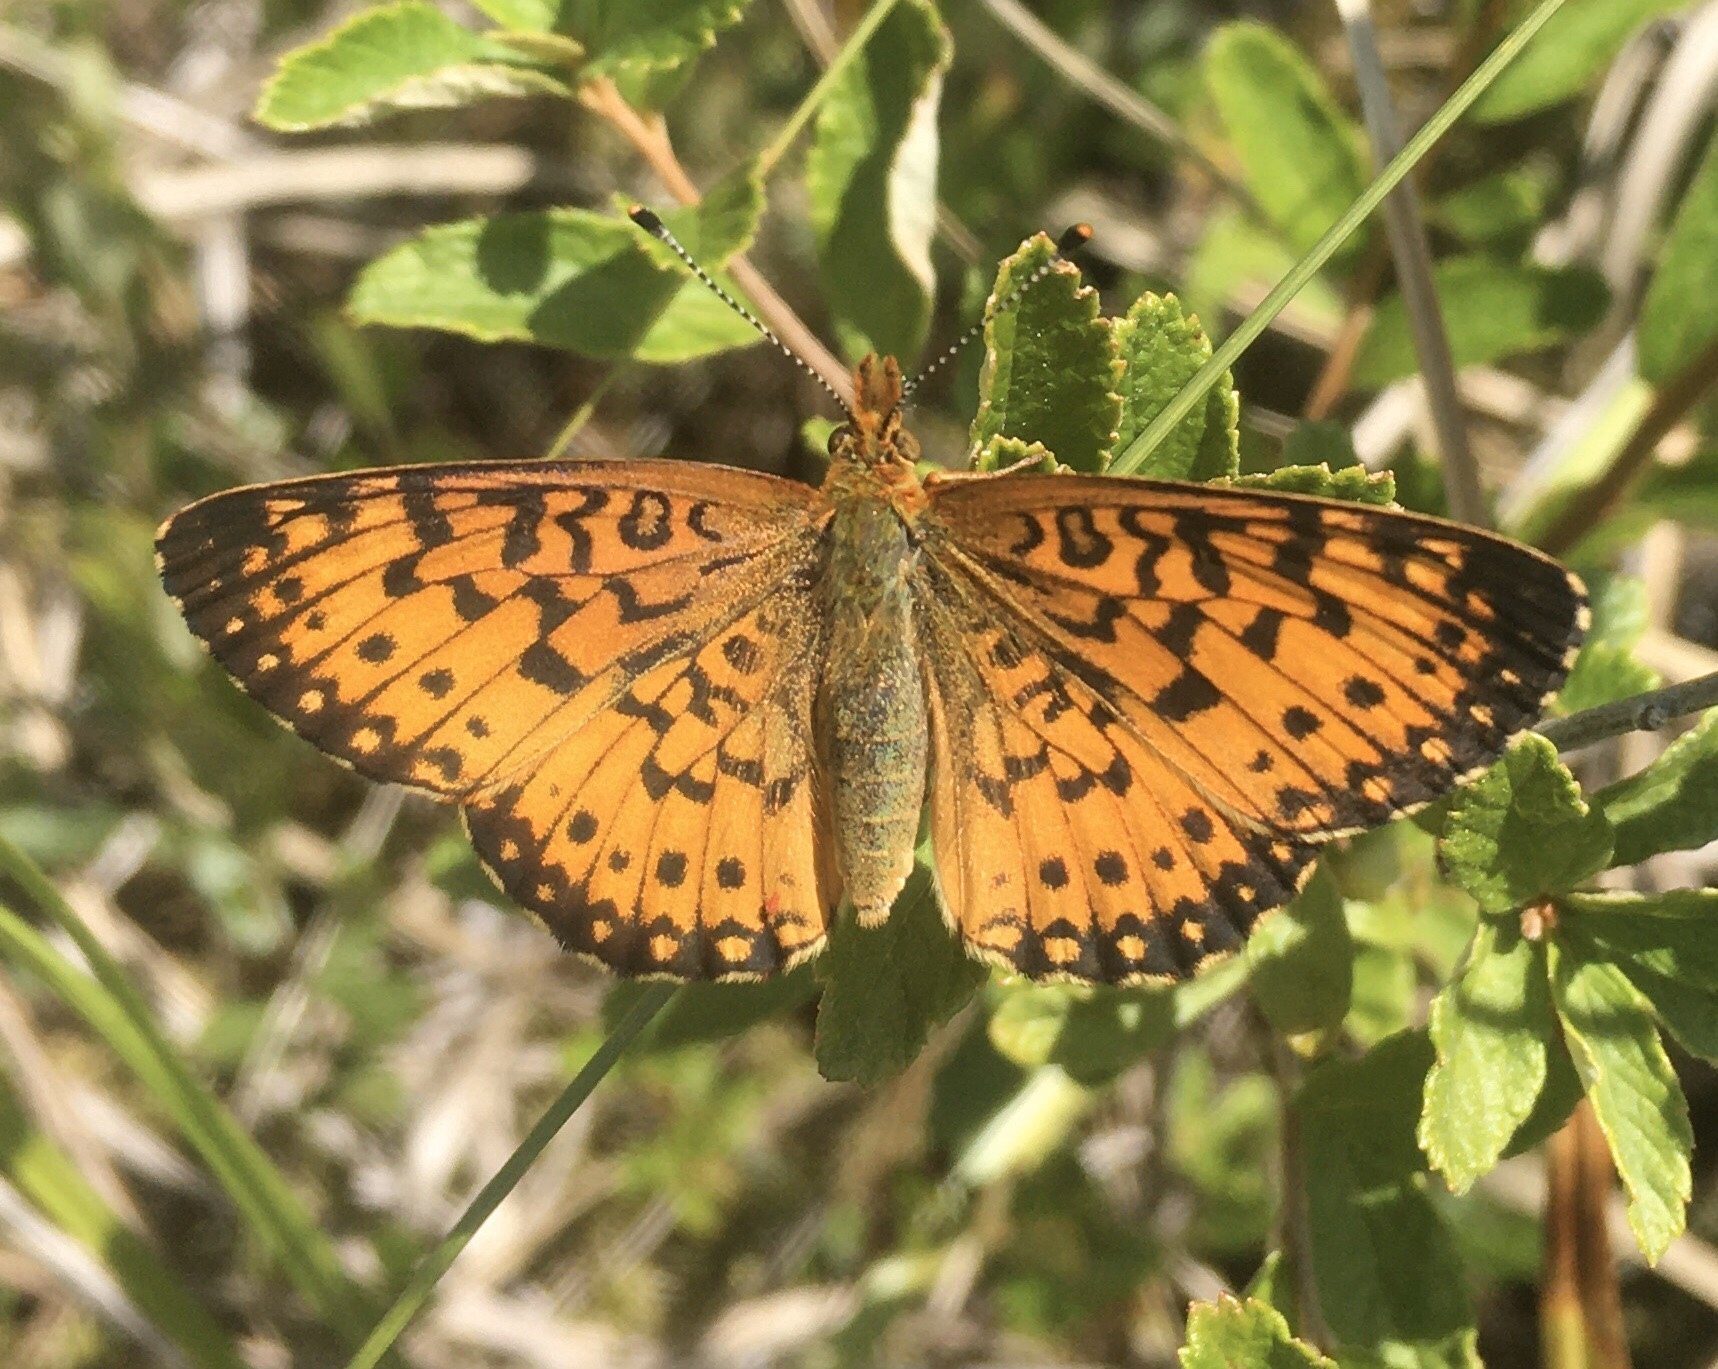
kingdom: Animalia
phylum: Arthropoda
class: Insecta
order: Lepidoptera
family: Nymphalidae
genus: Boloria
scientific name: Boloria
